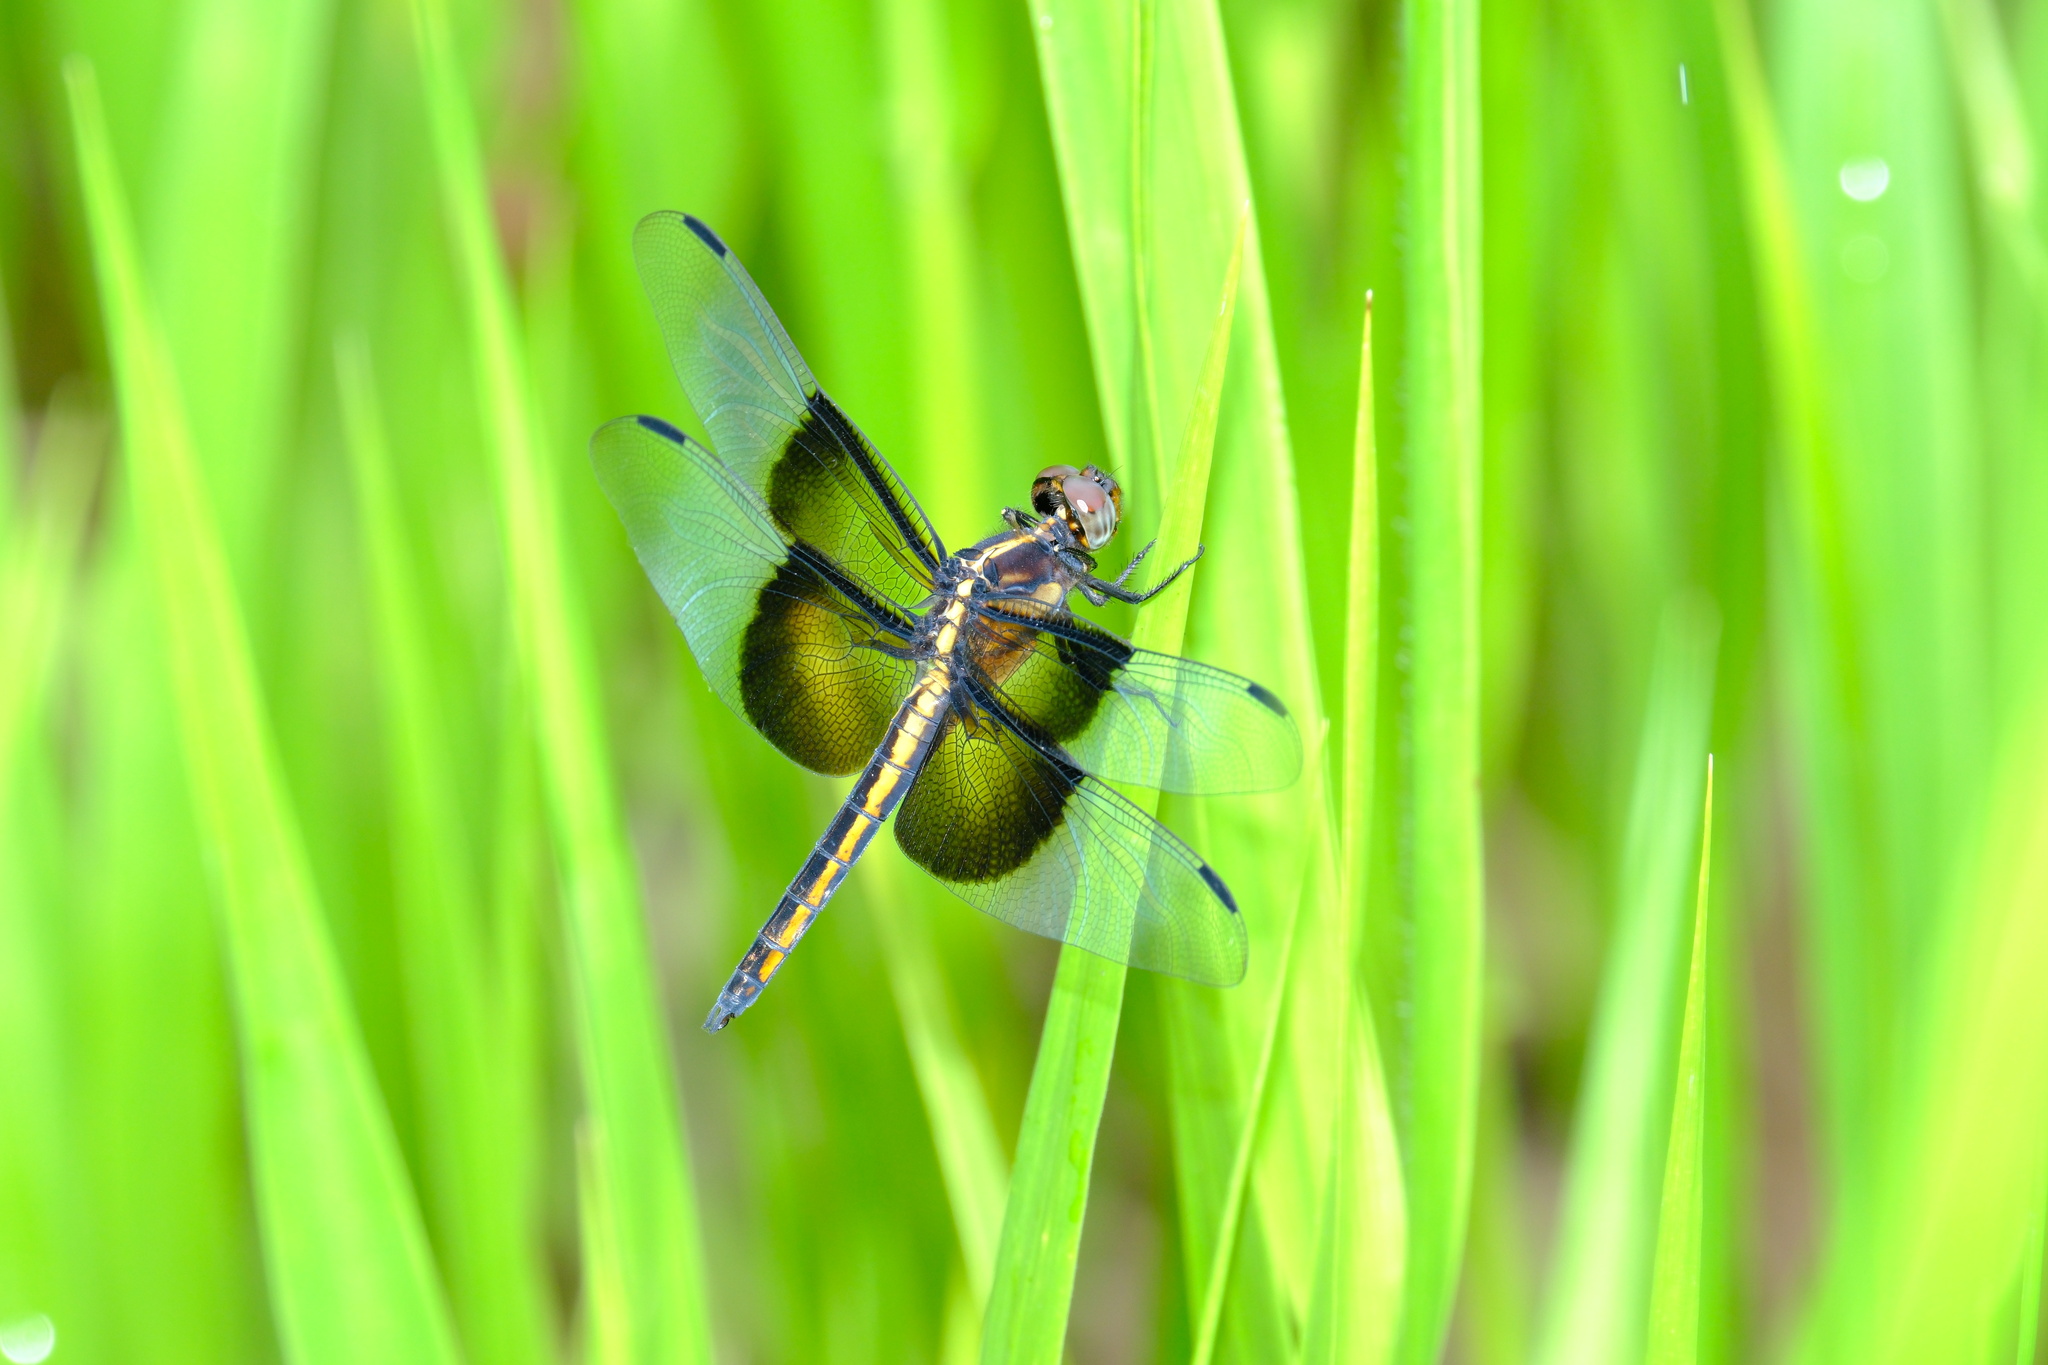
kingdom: Animalia
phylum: Arthropoda
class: Insecta
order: Odonata
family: Libellulidae
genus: Libellula
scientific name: Libellula luctuosa
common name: Widow skimmer
